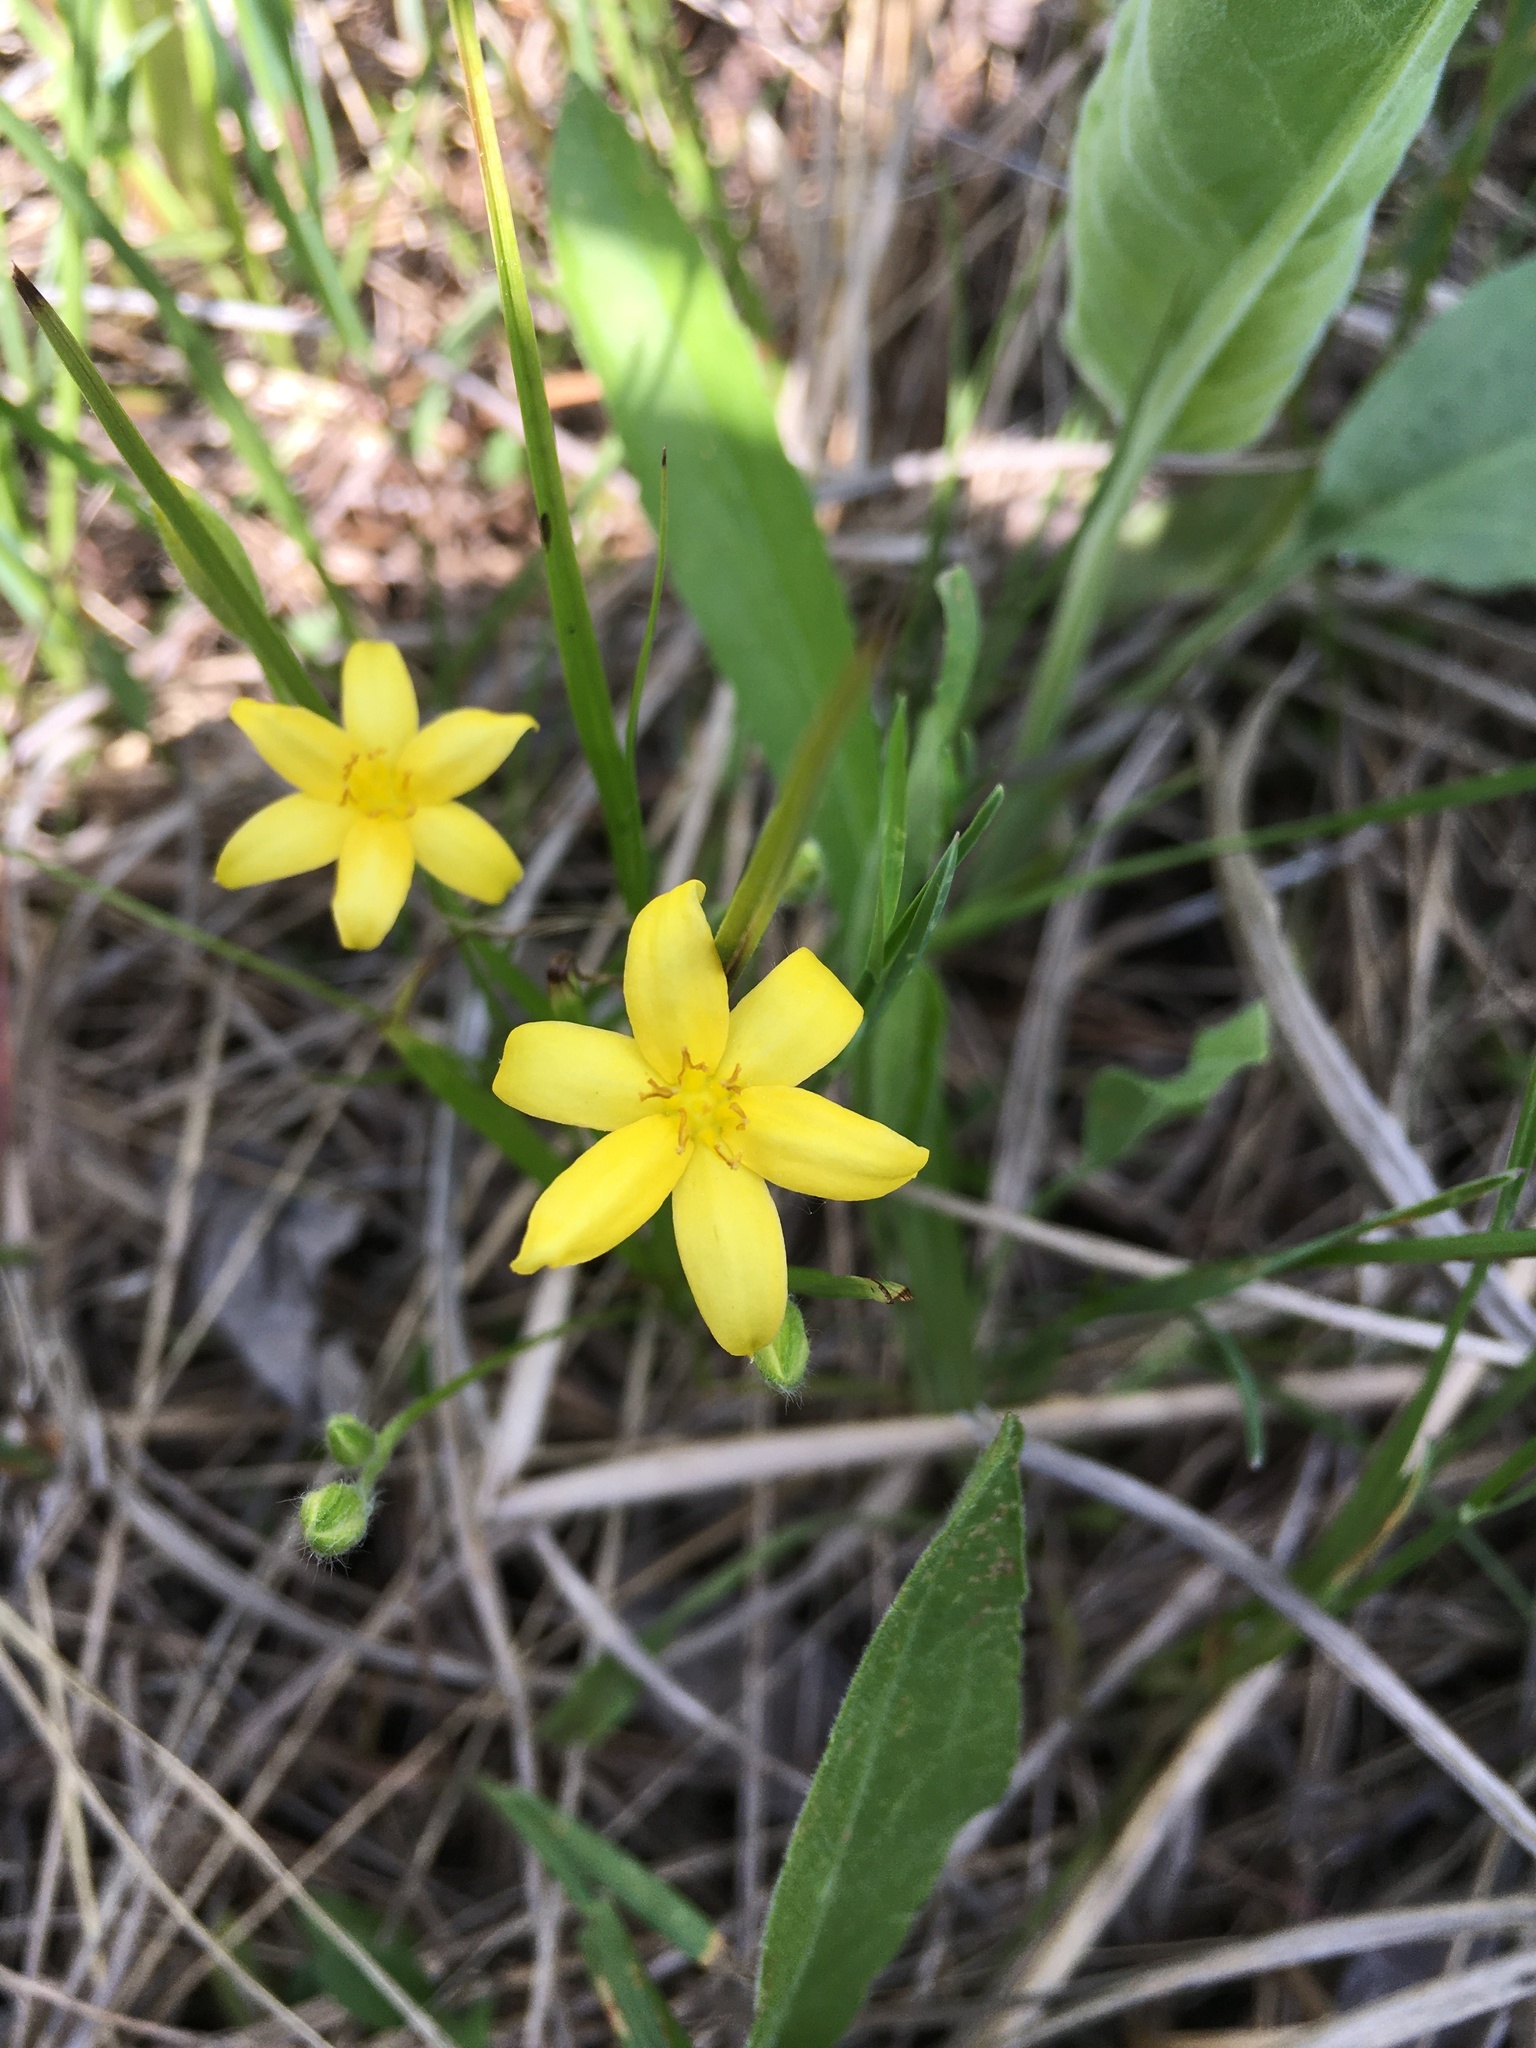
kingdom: Plantae
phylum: Tracheophyta
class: Liliopsida
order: Asparagales
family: Hypoxidaceae
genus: Hypoxis
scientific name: Hypoxis hirsuta
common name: Common goldstar
